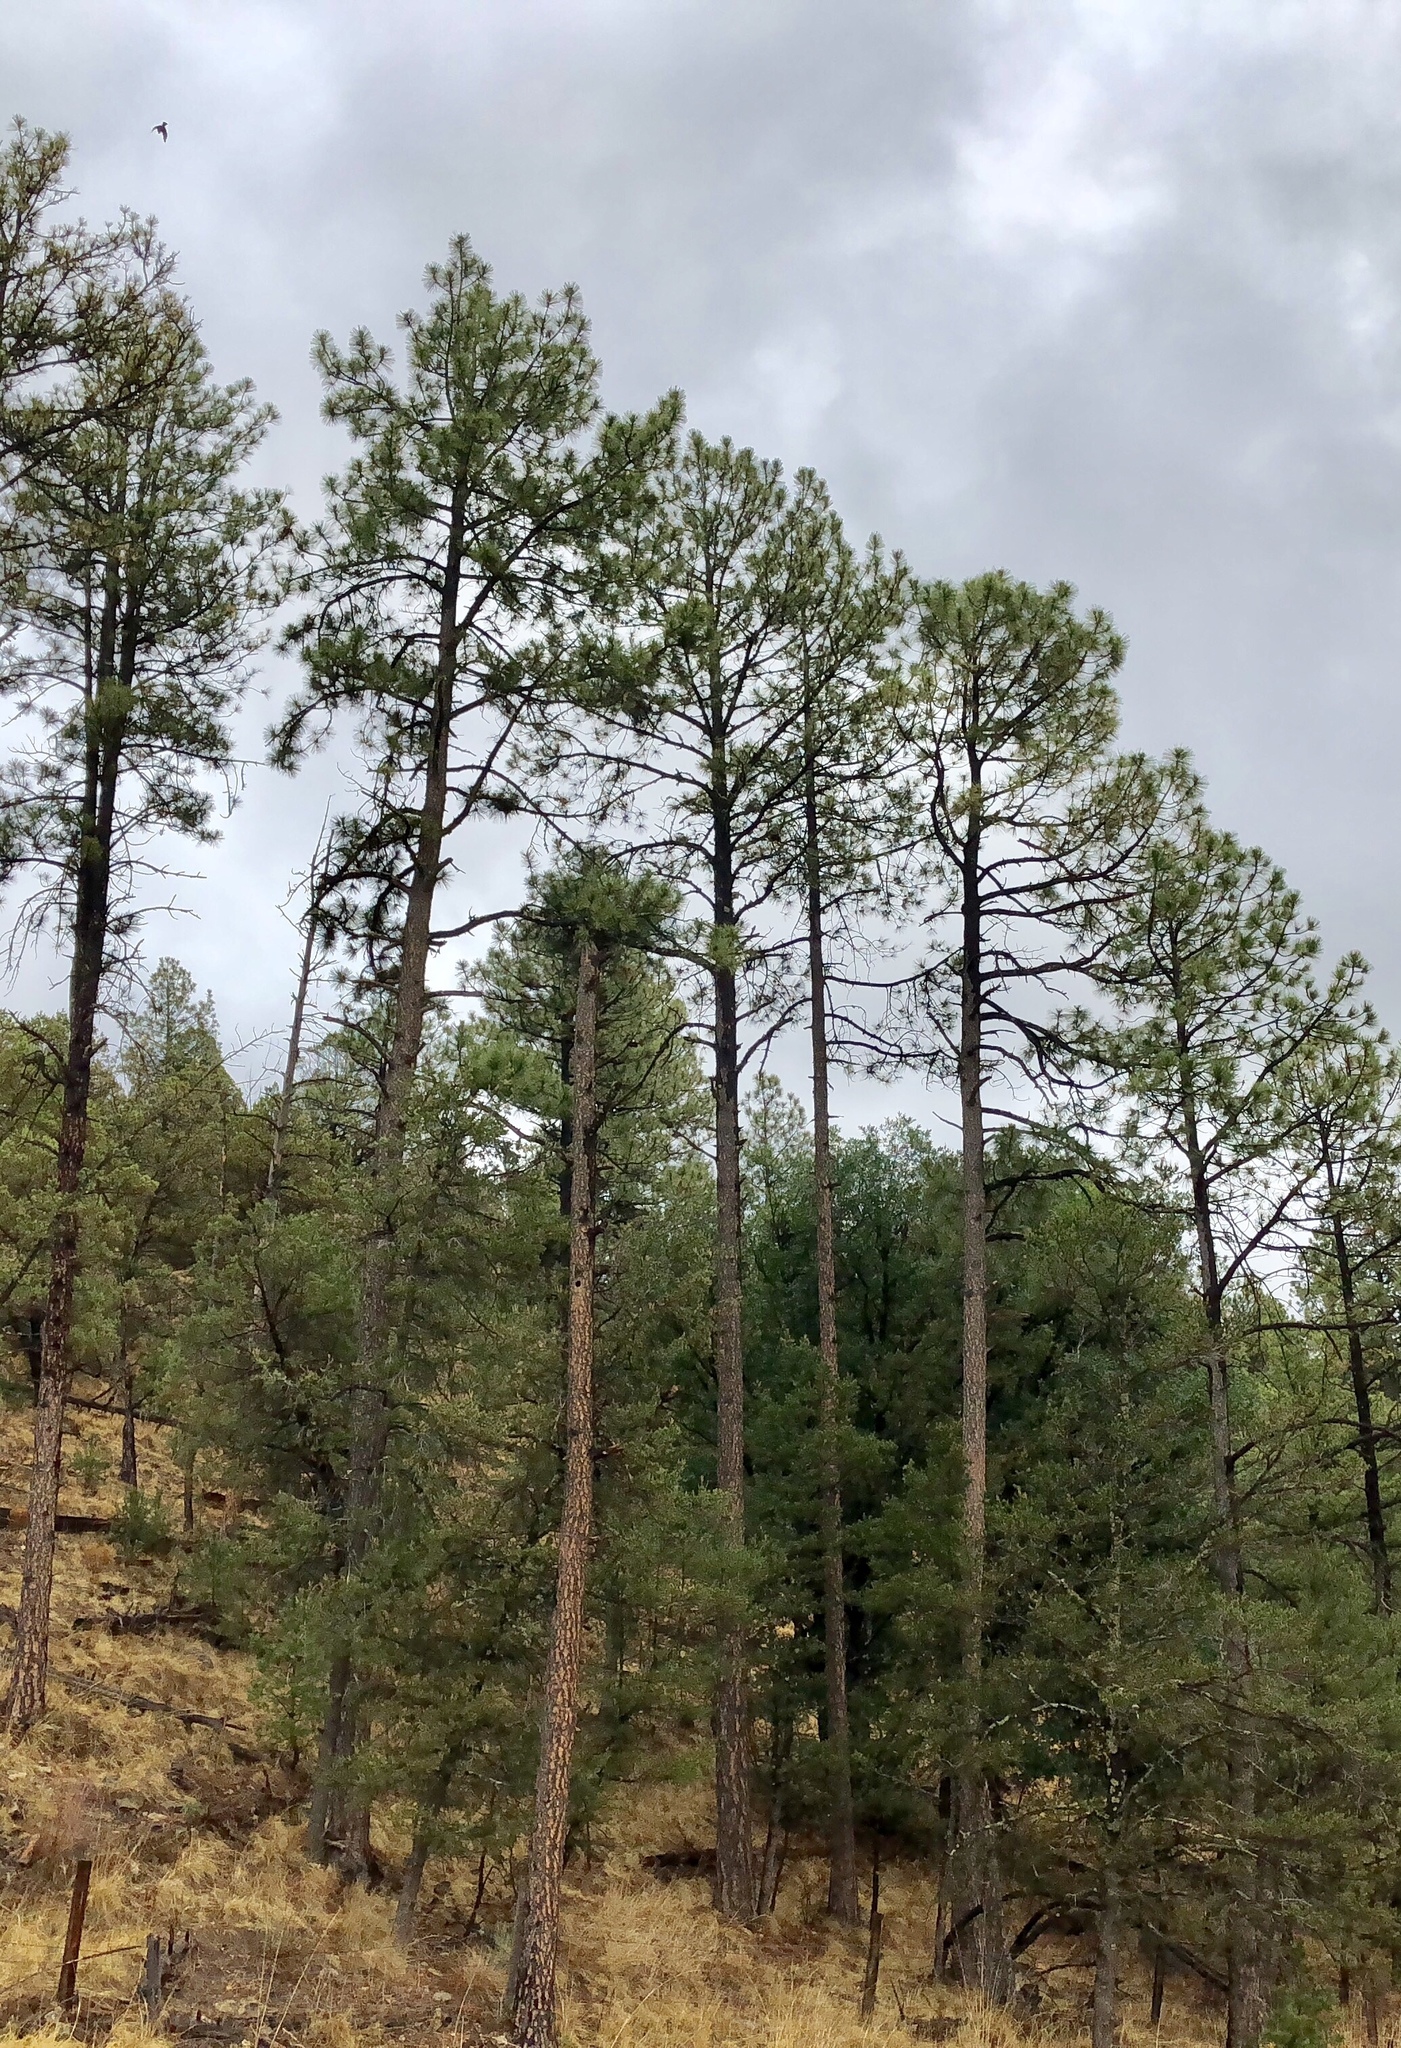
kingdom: Plantae
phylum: Tracheophyta
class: Pinopsida
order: Pinales
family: Pinaceae
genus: Pinus
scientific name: Pinus ponderosa
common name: Western yellow-pine
